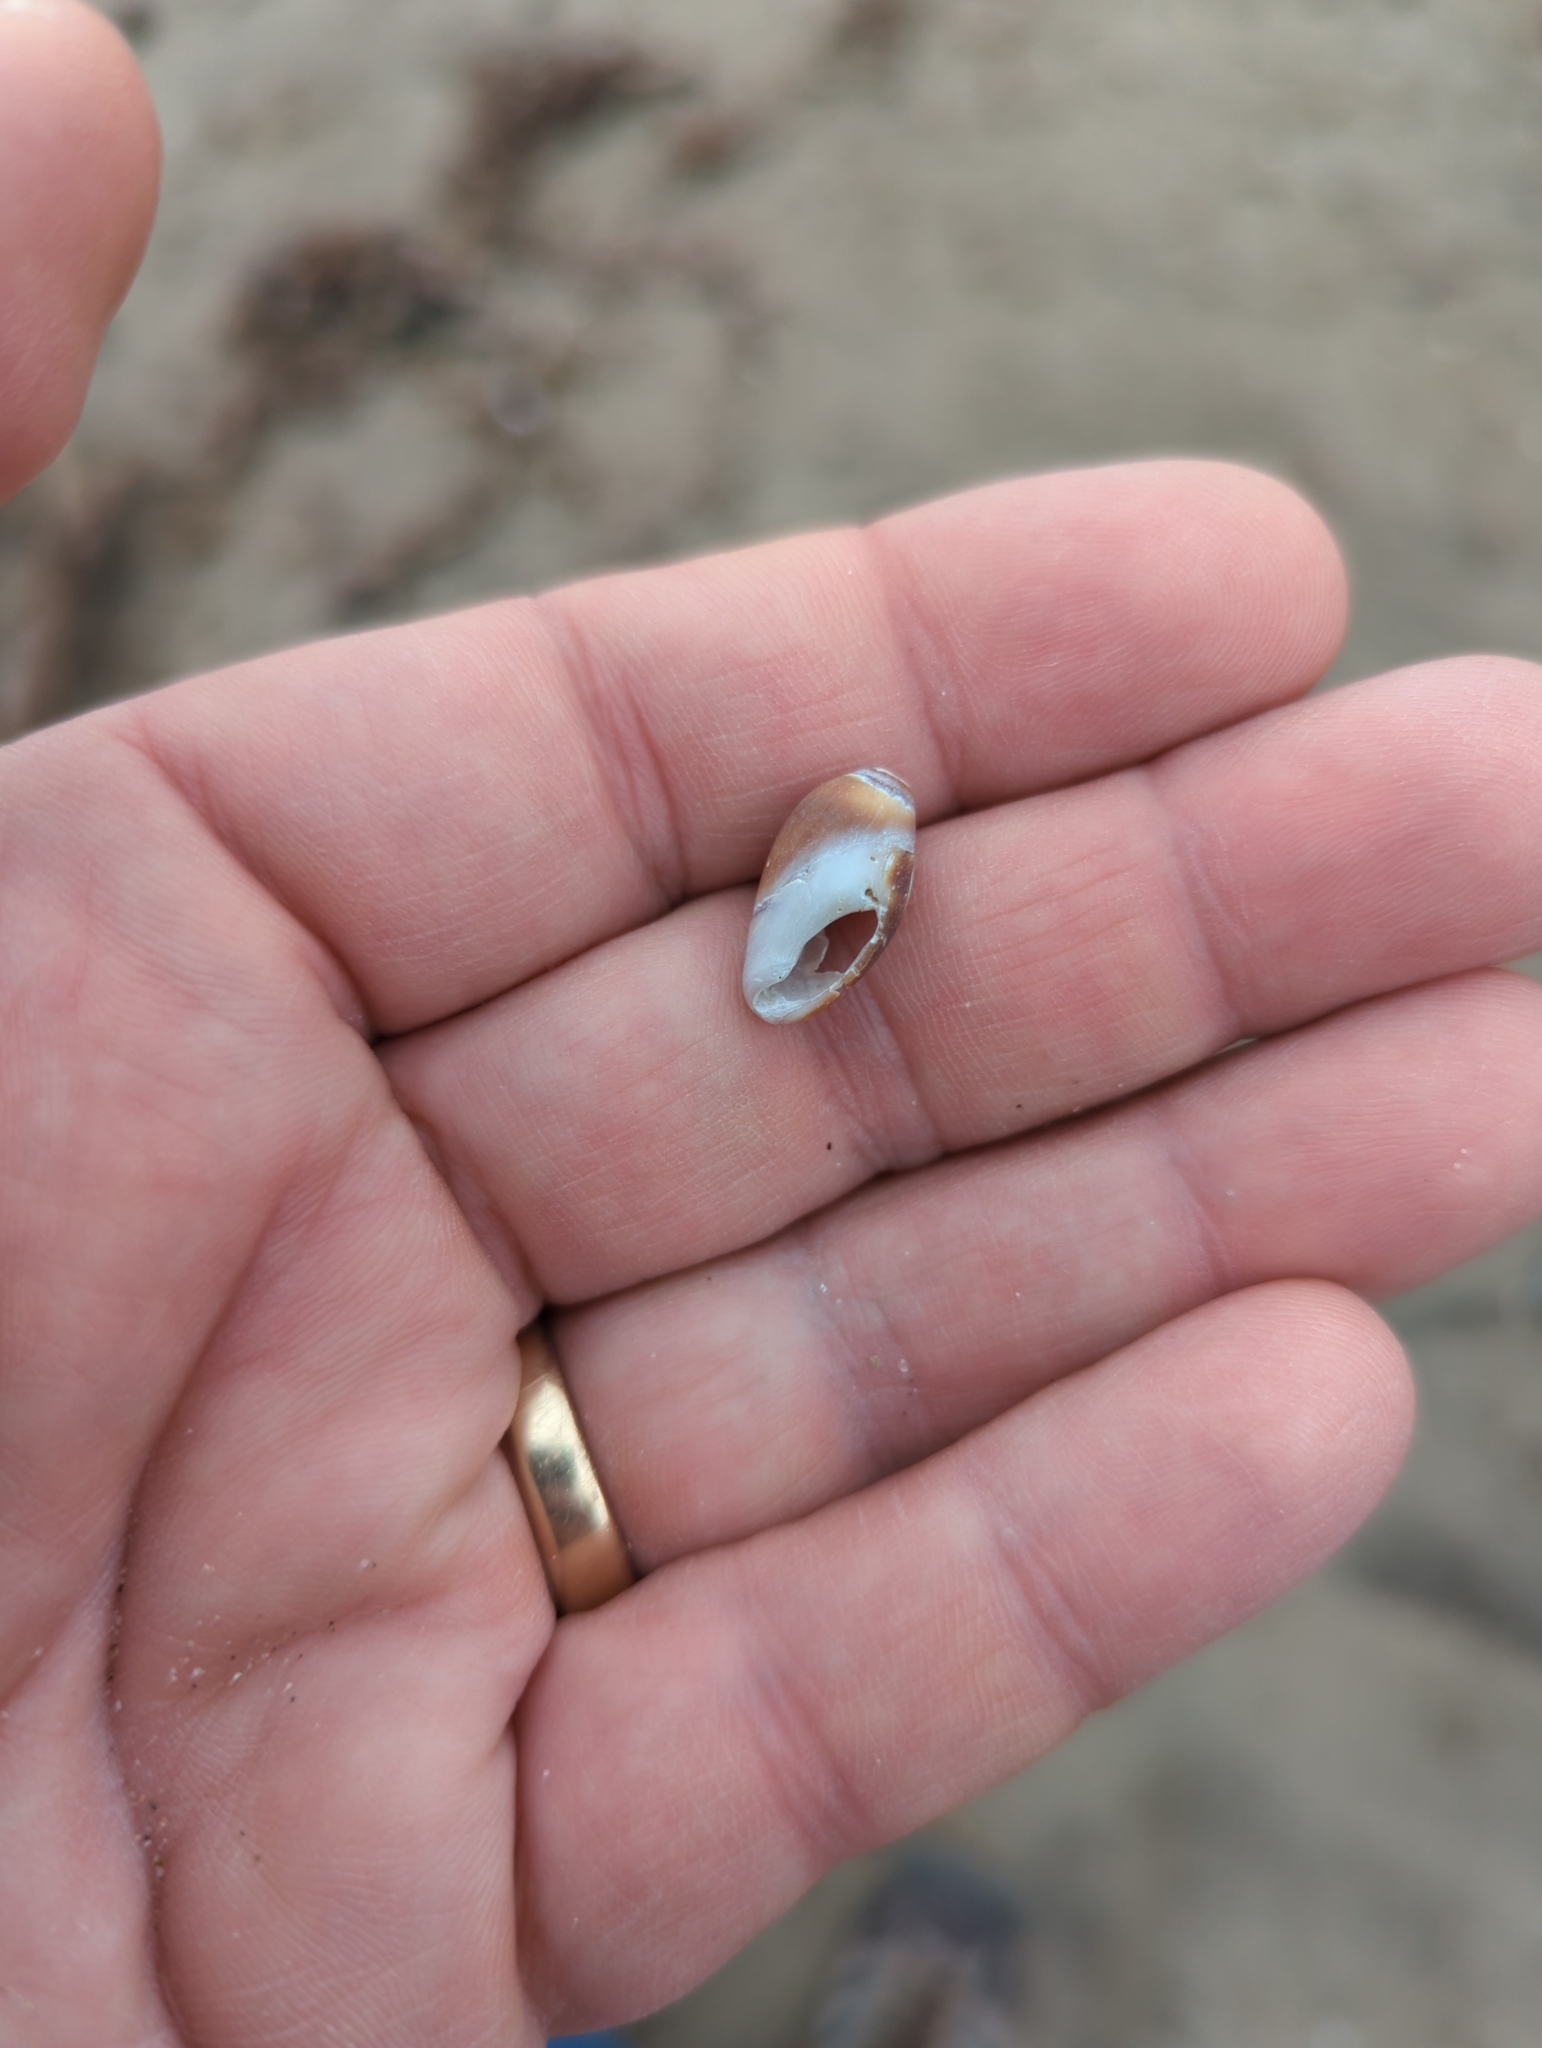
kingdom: Animalia
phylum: Mollusca
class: Gastropoda
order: Neogastropoda
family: Olividae
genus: Callianax
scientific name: Callianax biplicata
